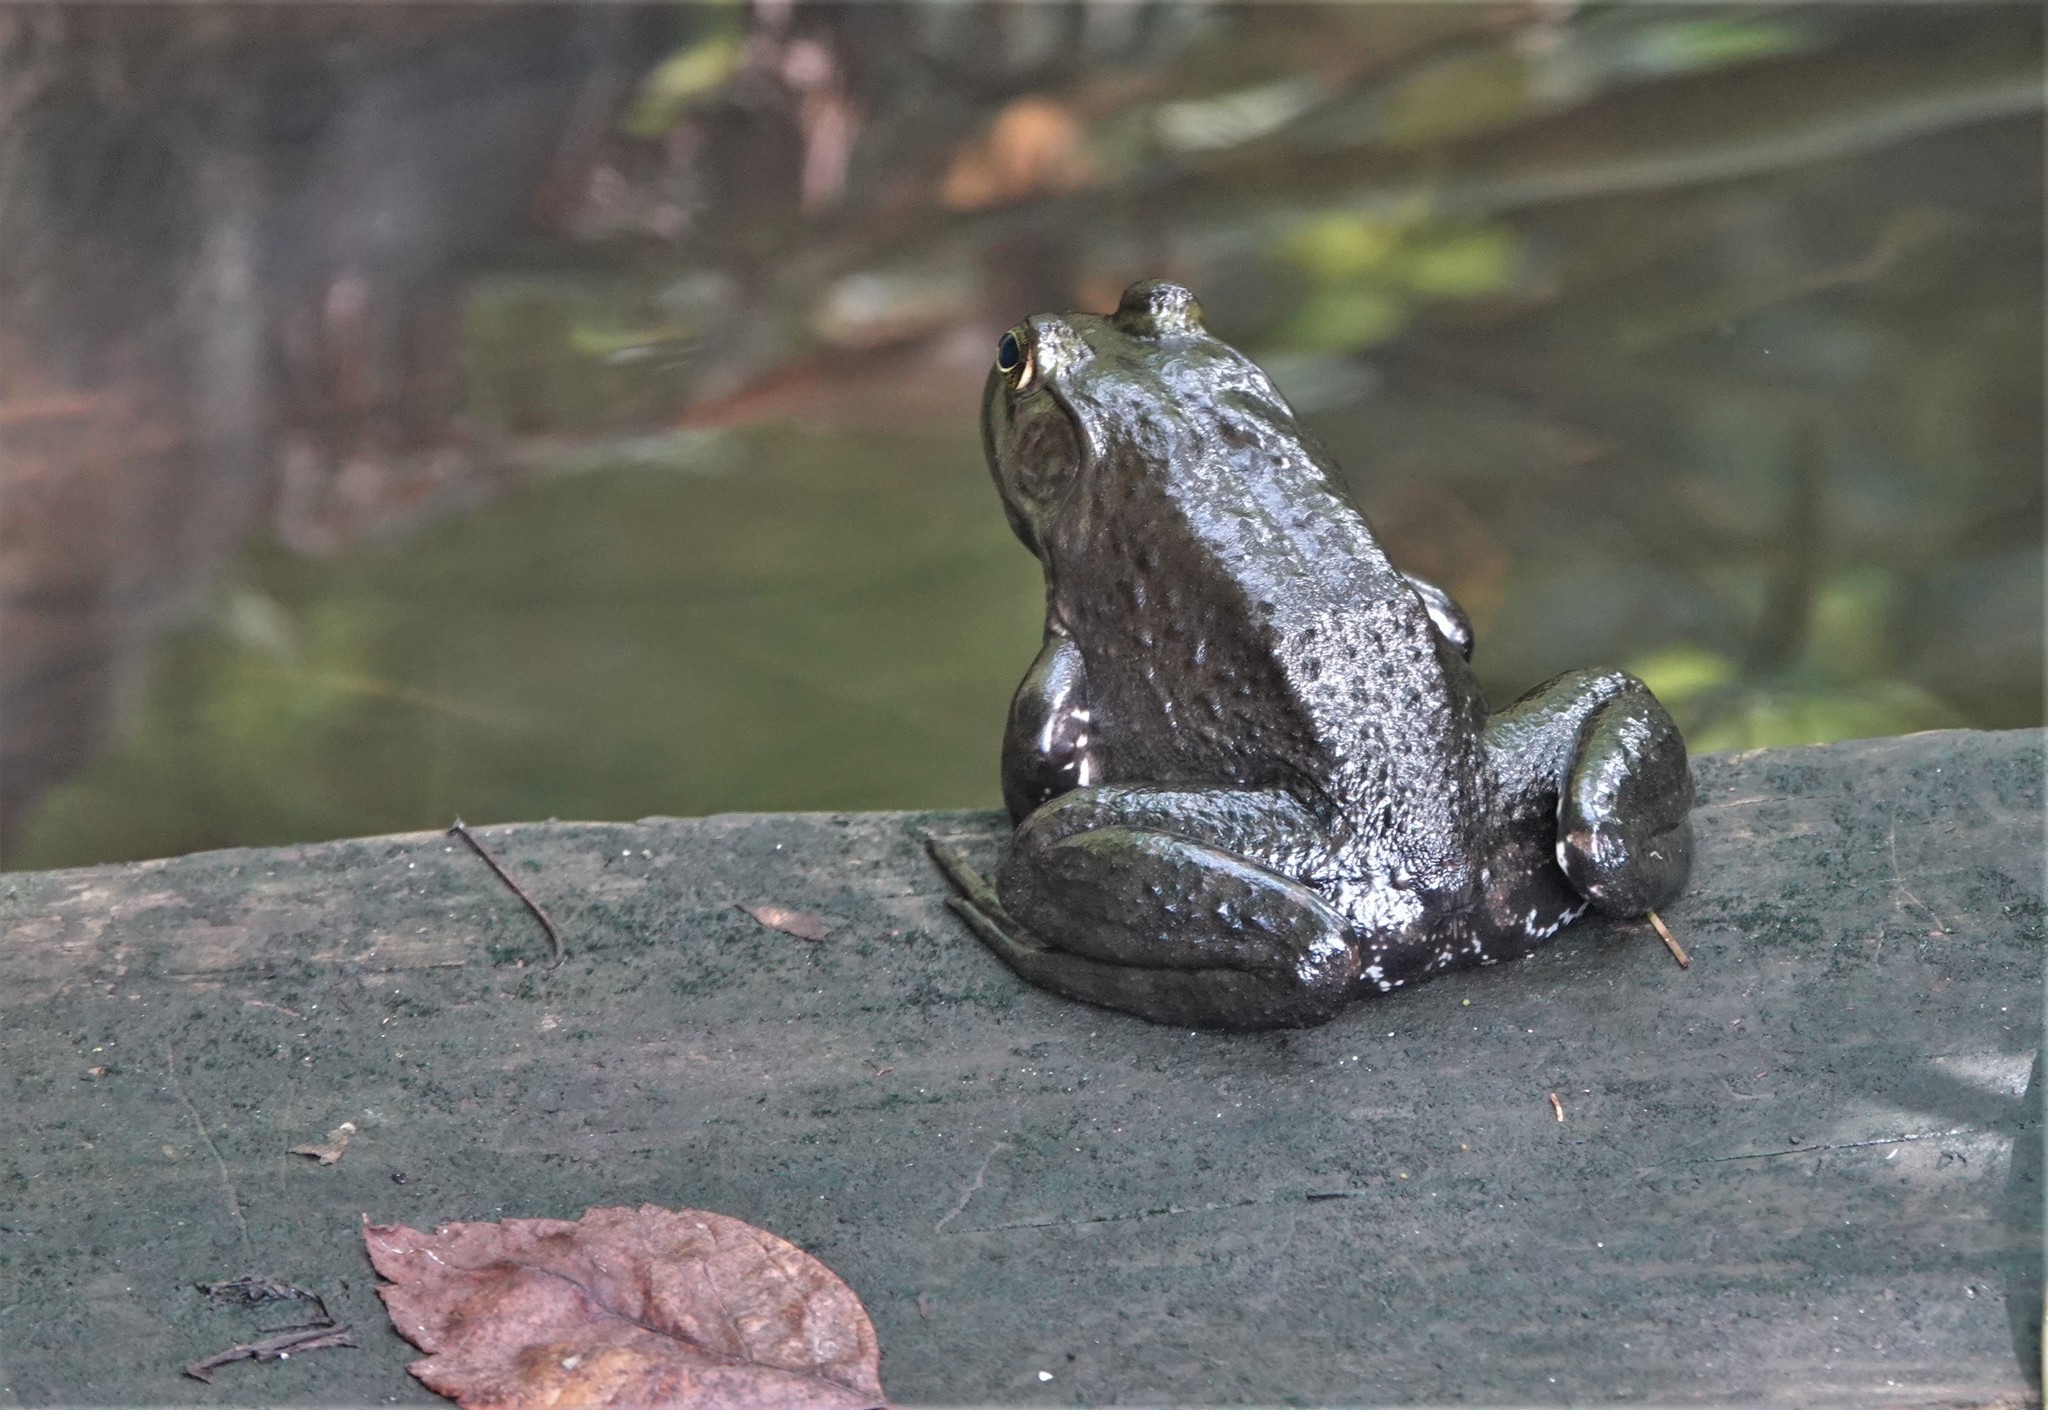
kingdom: Animalia
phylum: Chordata
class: Amphibia
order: Anura
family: Ranidae
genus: Lithobates
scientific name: Lithobates catesbeianus
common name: American bullfrog
